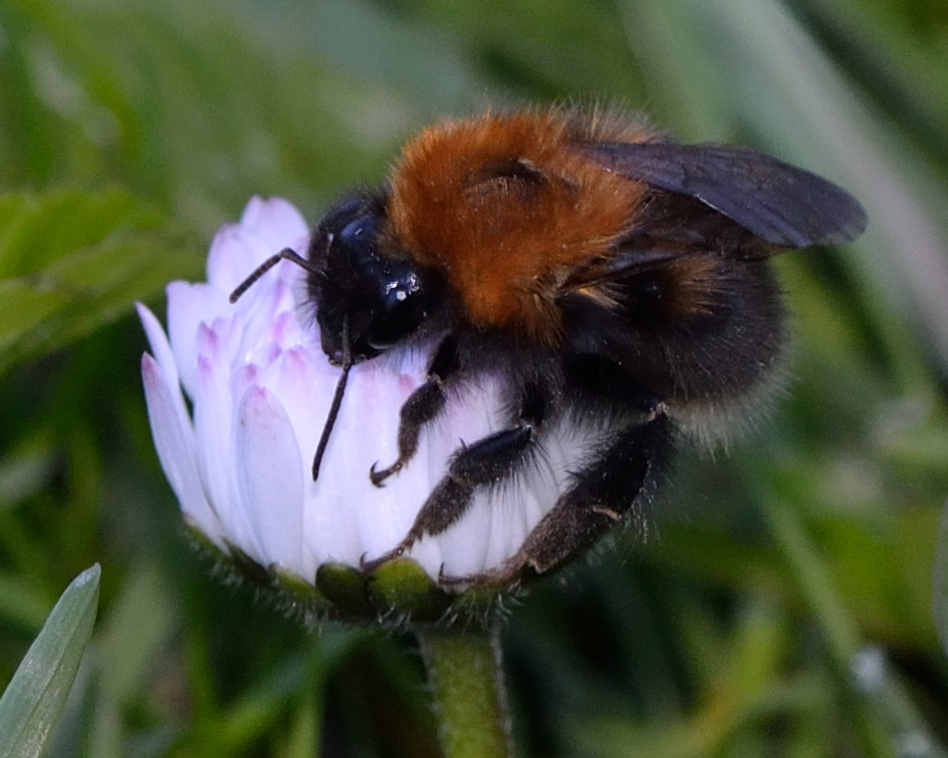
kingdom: Animalia
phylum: Arthropoda
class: Insecta
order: Hymenoptera
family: Apidae
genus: Bombus
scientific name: Bombus hypnorum
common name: New garden bumblebee
